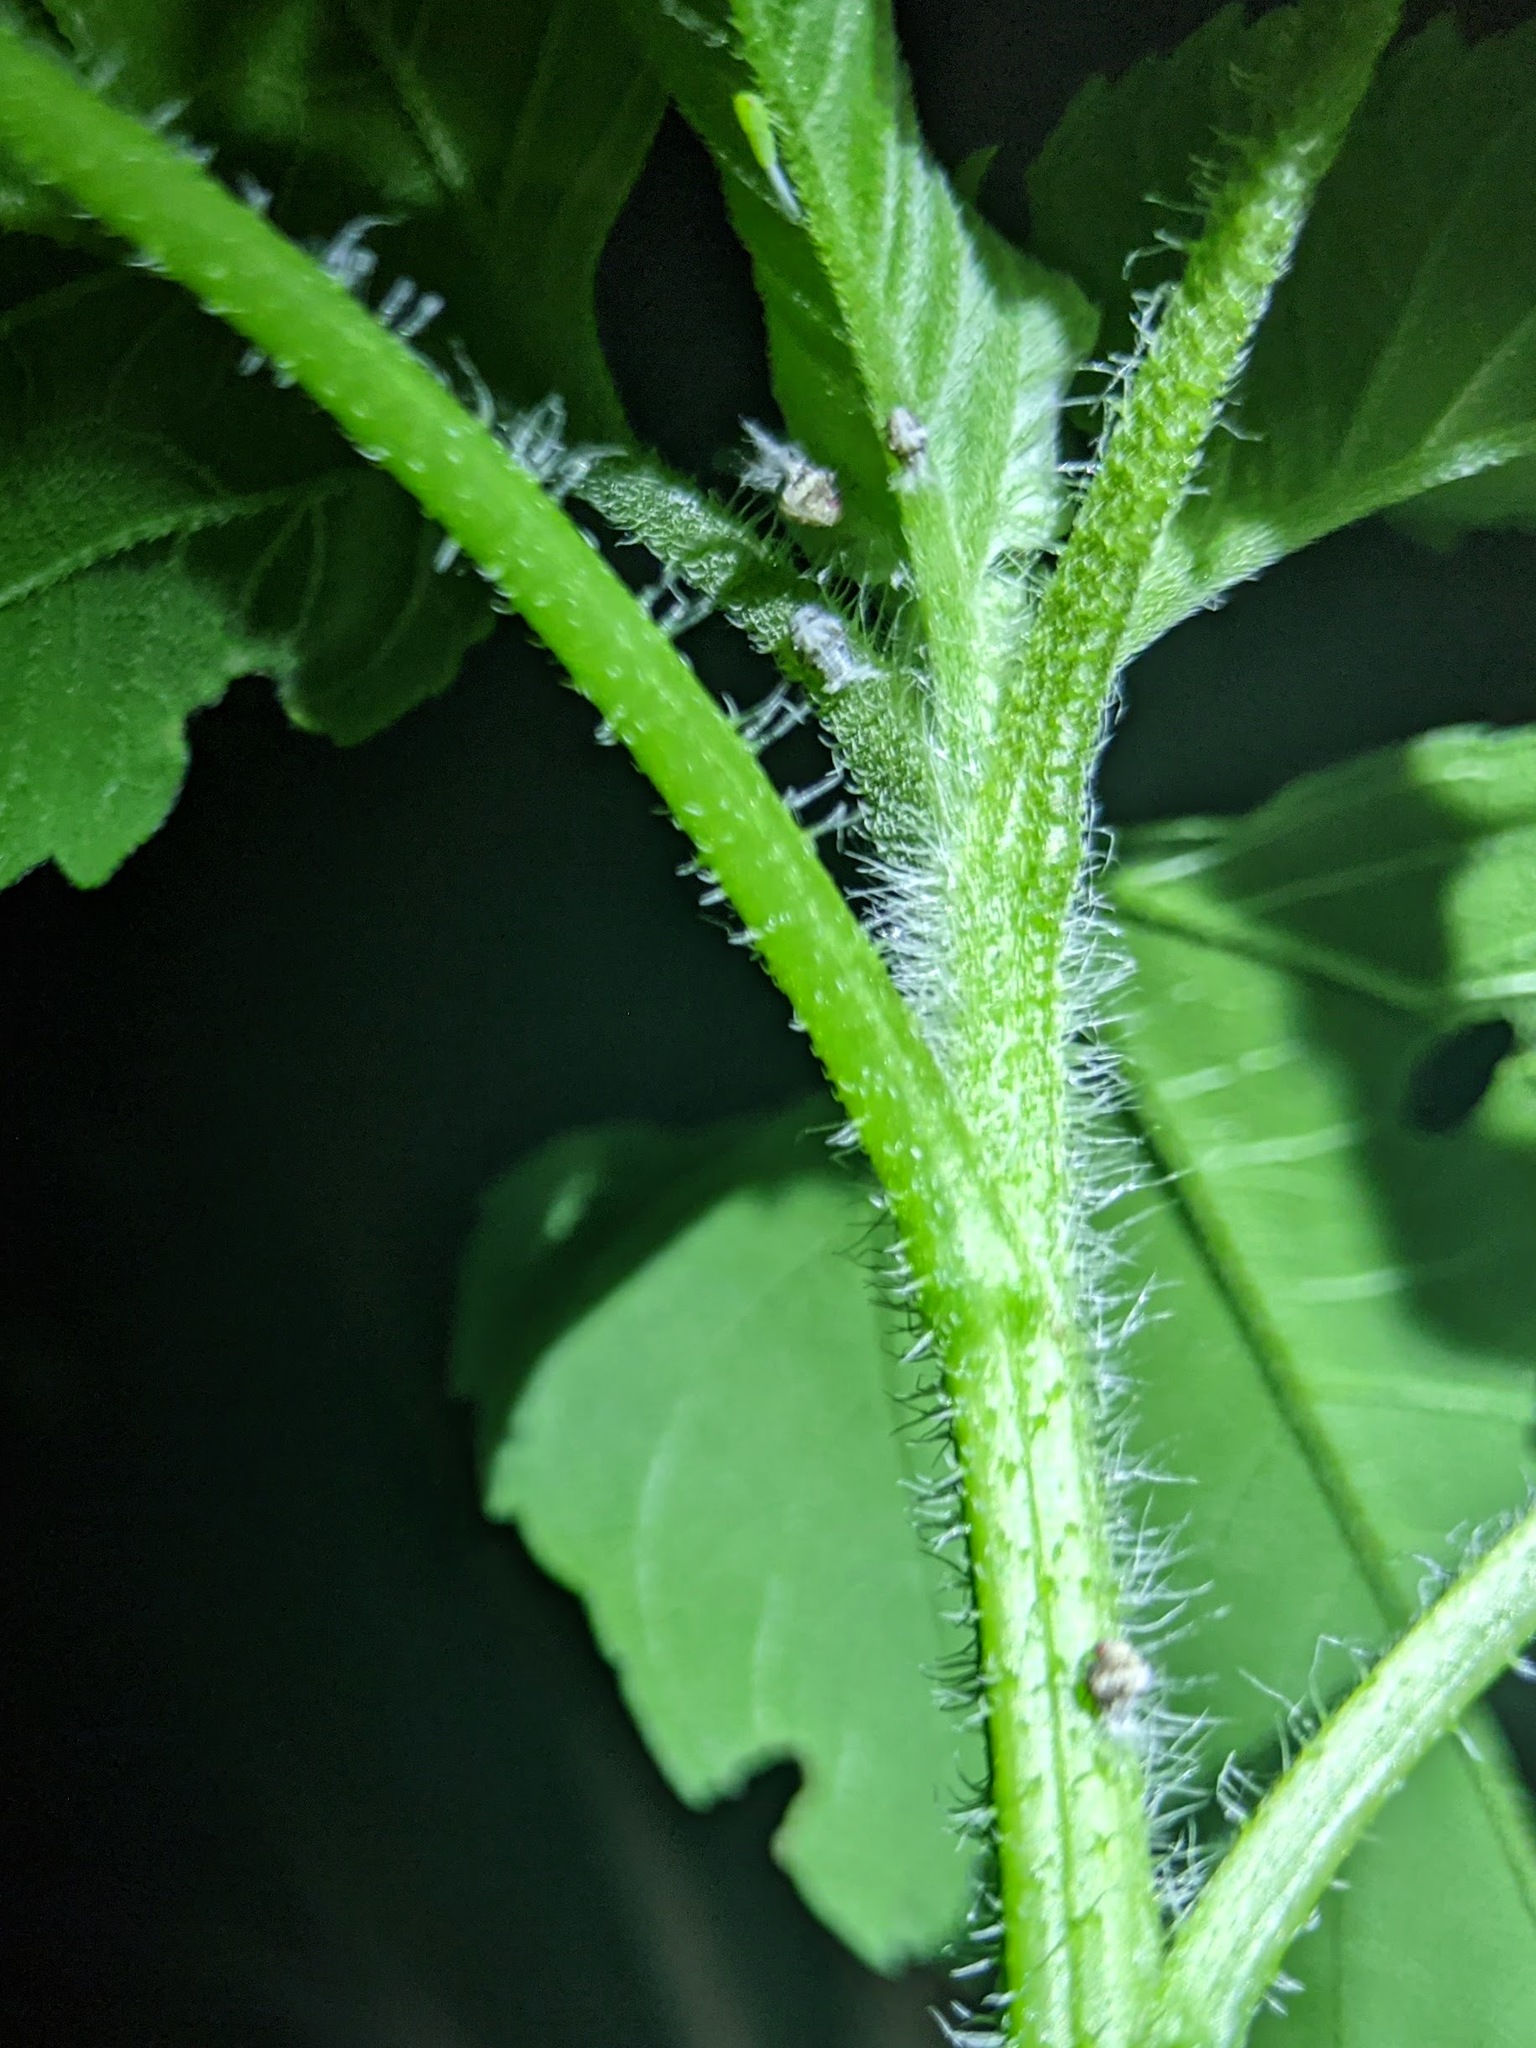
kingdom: Animalia
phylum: Arthropoda
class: Insecta
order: Hemiptera
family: Acanaloniidae
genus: Acanalonia
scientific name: Acanalonia bivittata
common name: Two-striped planthopper
